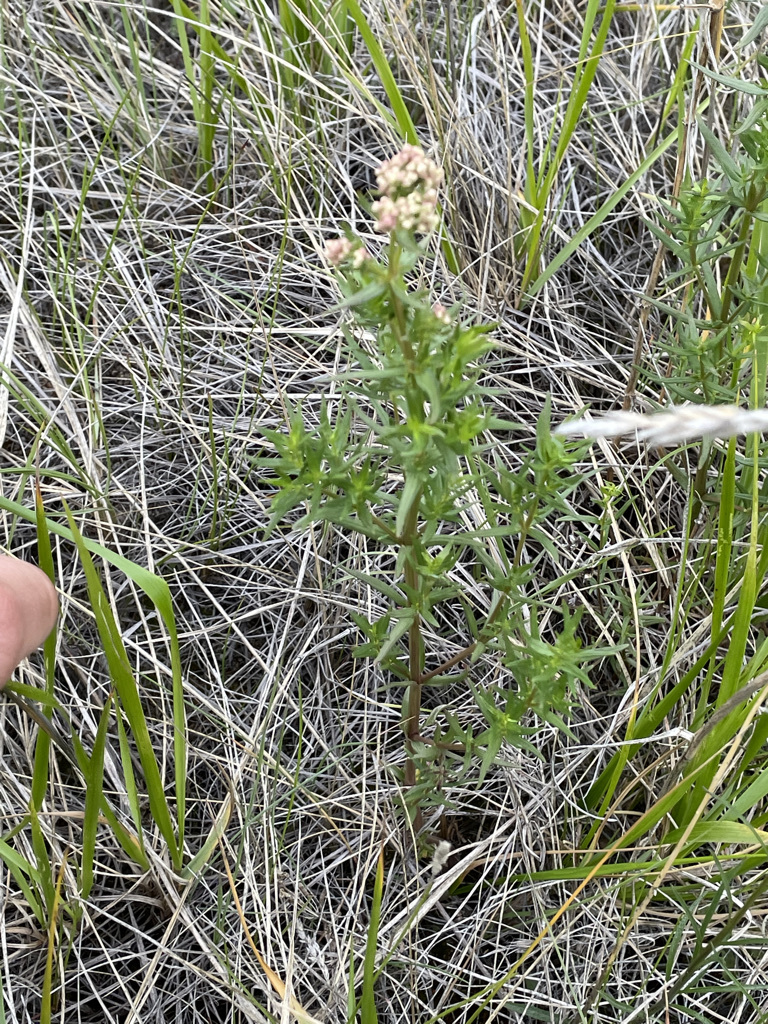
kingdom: Plantae
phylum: Tracheophyta
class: Magnoliopsida
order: Gentianales
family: Rubiaceae
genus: Galium
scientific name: Galium boreale
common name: Northern bedstraw
